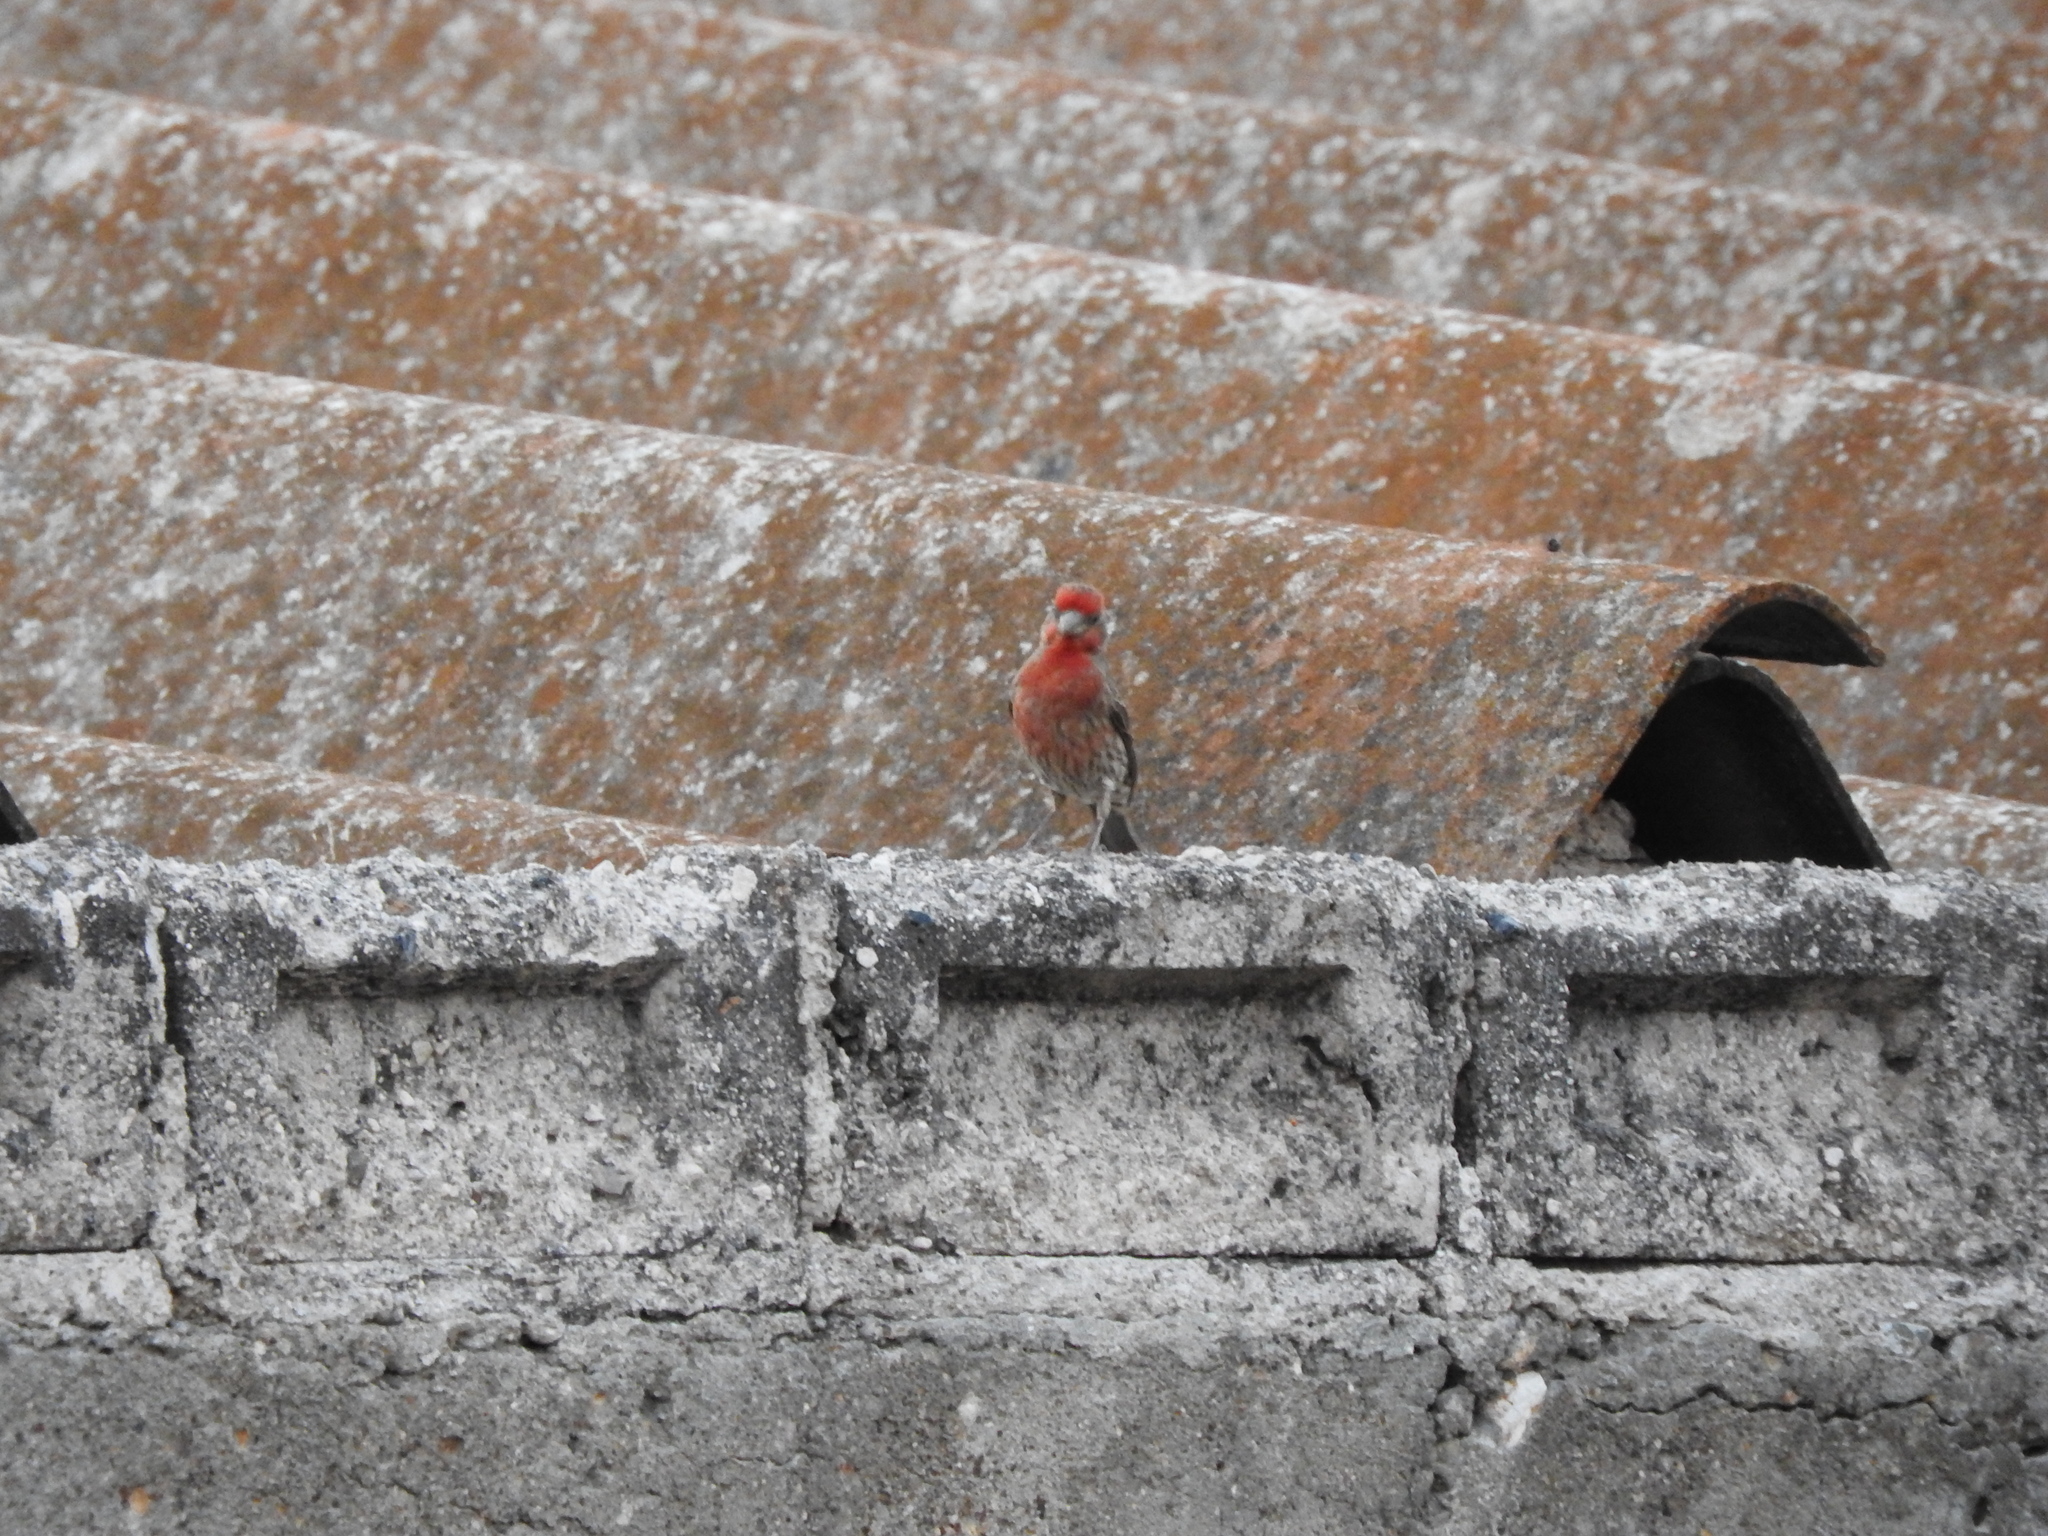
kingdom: Animalia
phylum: Chordata
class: Aves
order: Passeriformes
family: Fringillidae
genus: Haemorhous
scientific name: Haemorhous mexicanus
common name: House finch
